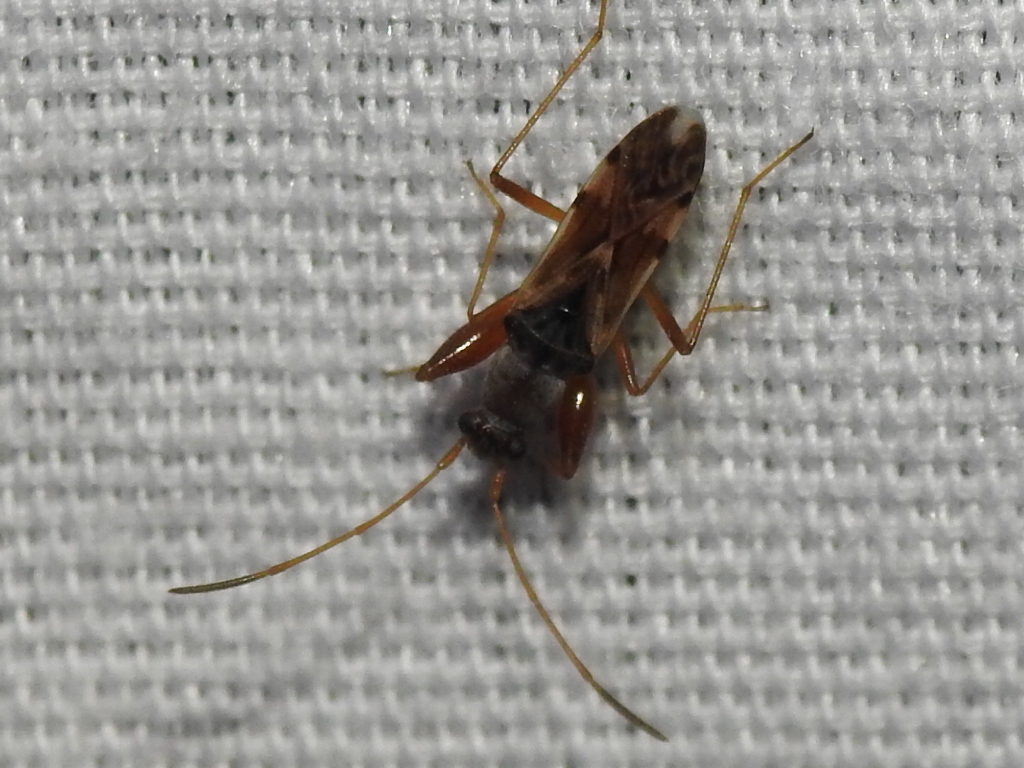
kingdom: Animalia
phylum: Arthropoda
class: Insecta
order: Hemiptera
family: Rhyparochromidae
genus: Neopamera
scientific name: Neopamera bilobata
